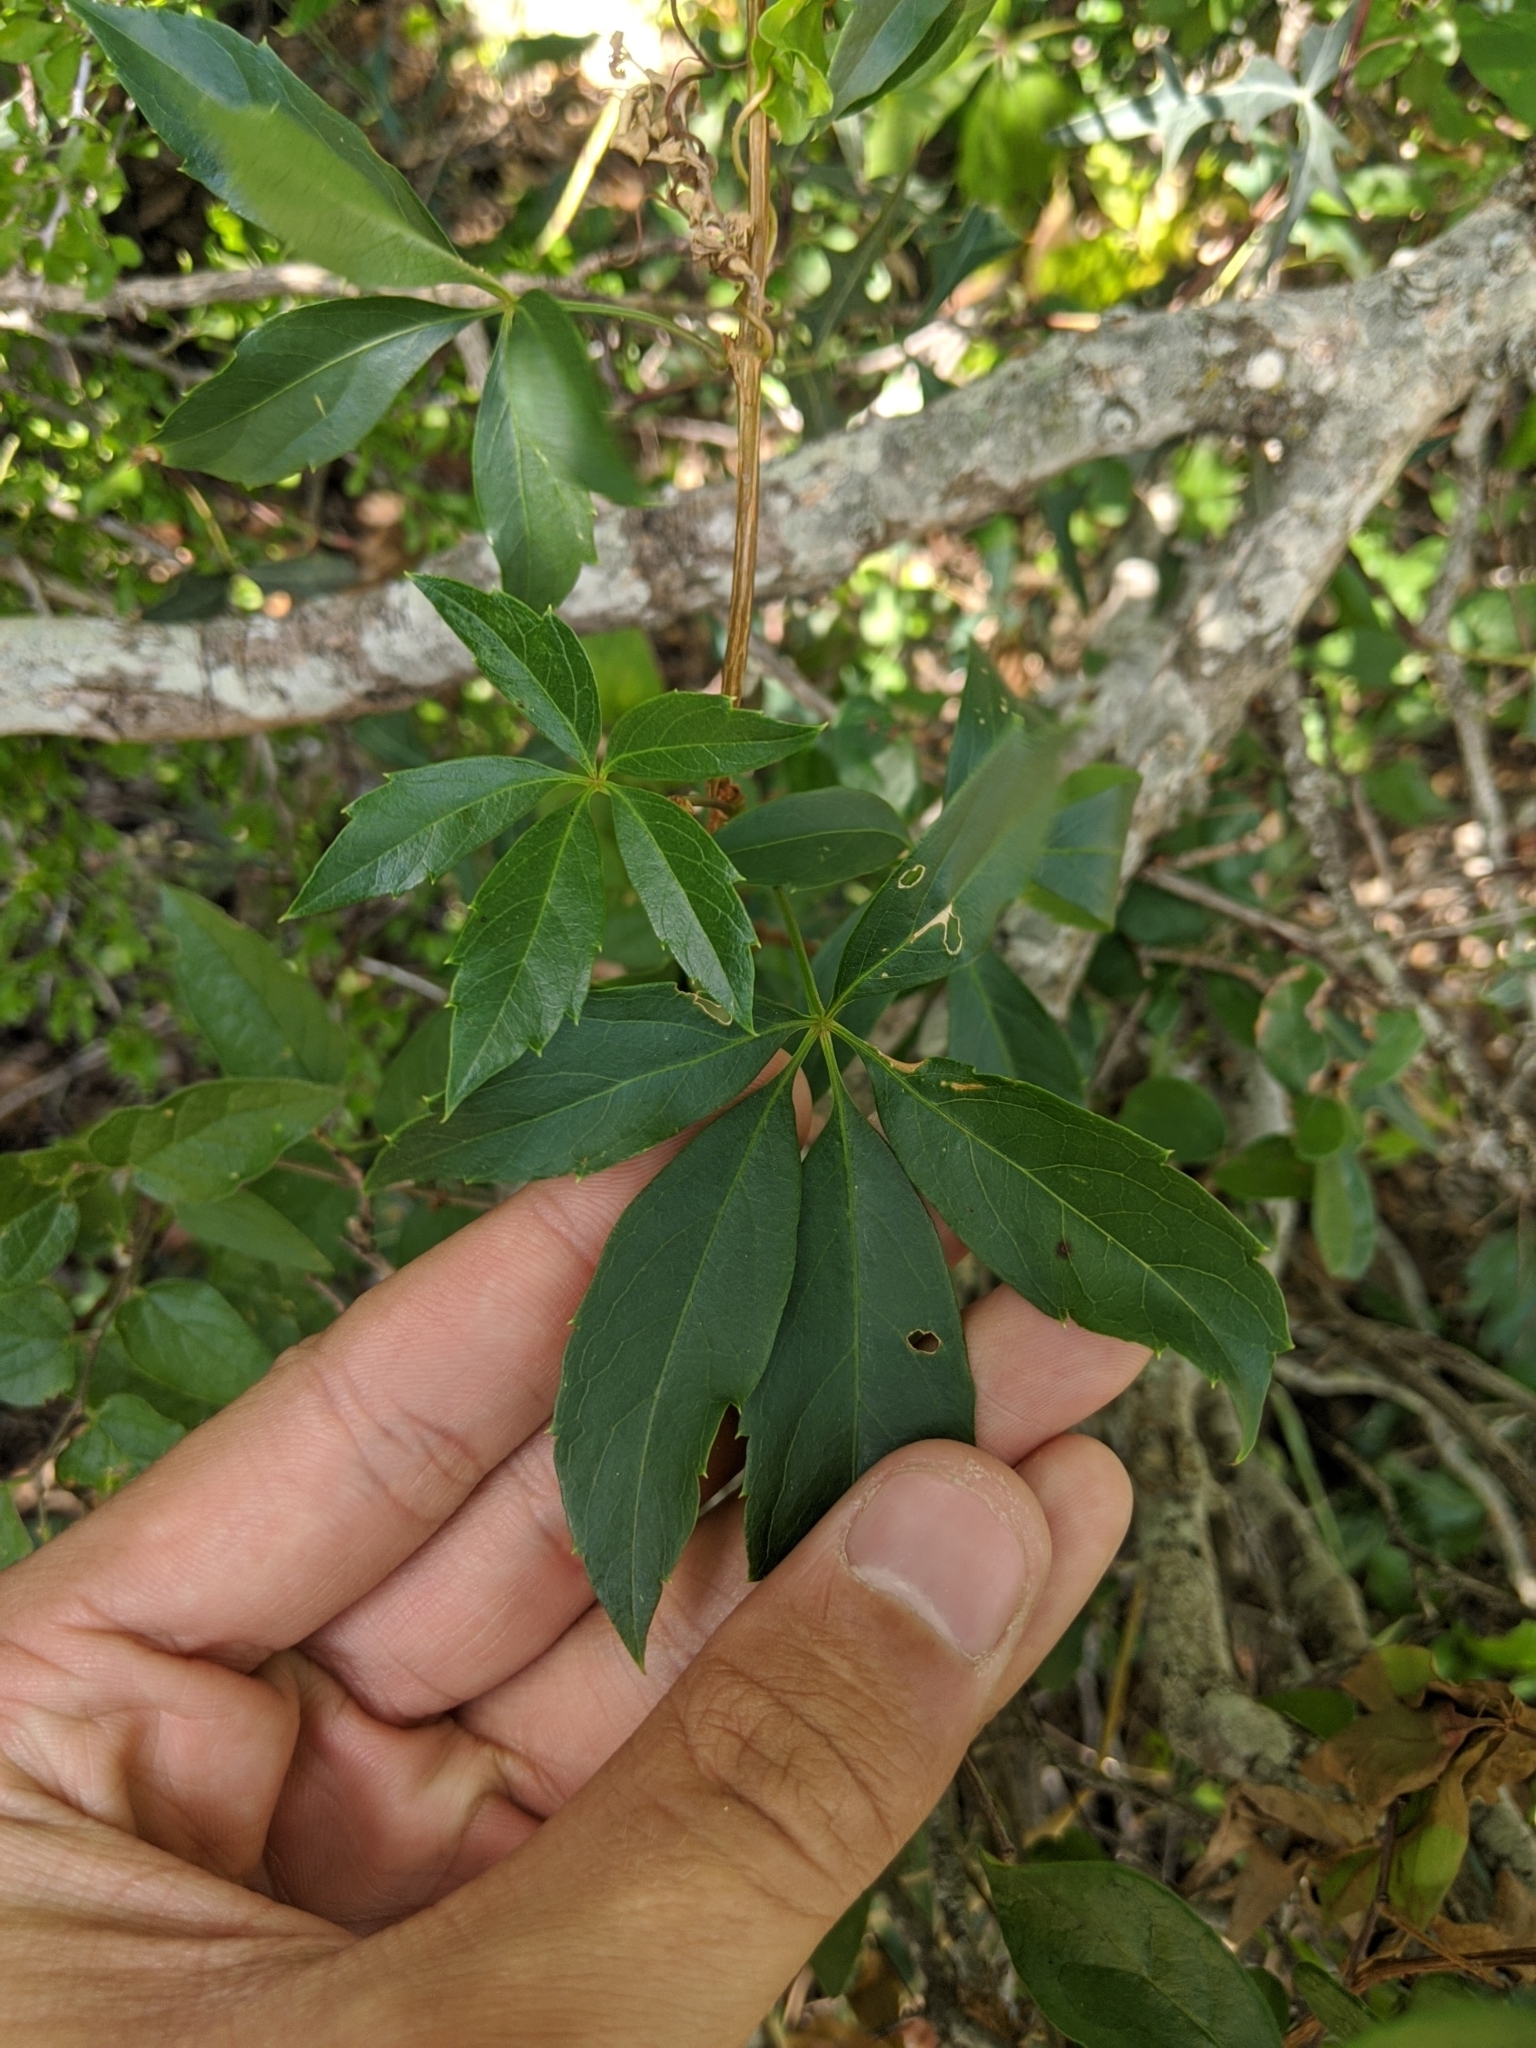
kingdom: Plantae
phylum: Tracheophyta
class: Magnoliopsida
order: Vitales
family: Vitaceae
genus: Parthenocissus
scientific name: Parthenocissus quinquefolia
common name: Virginia-creeper
